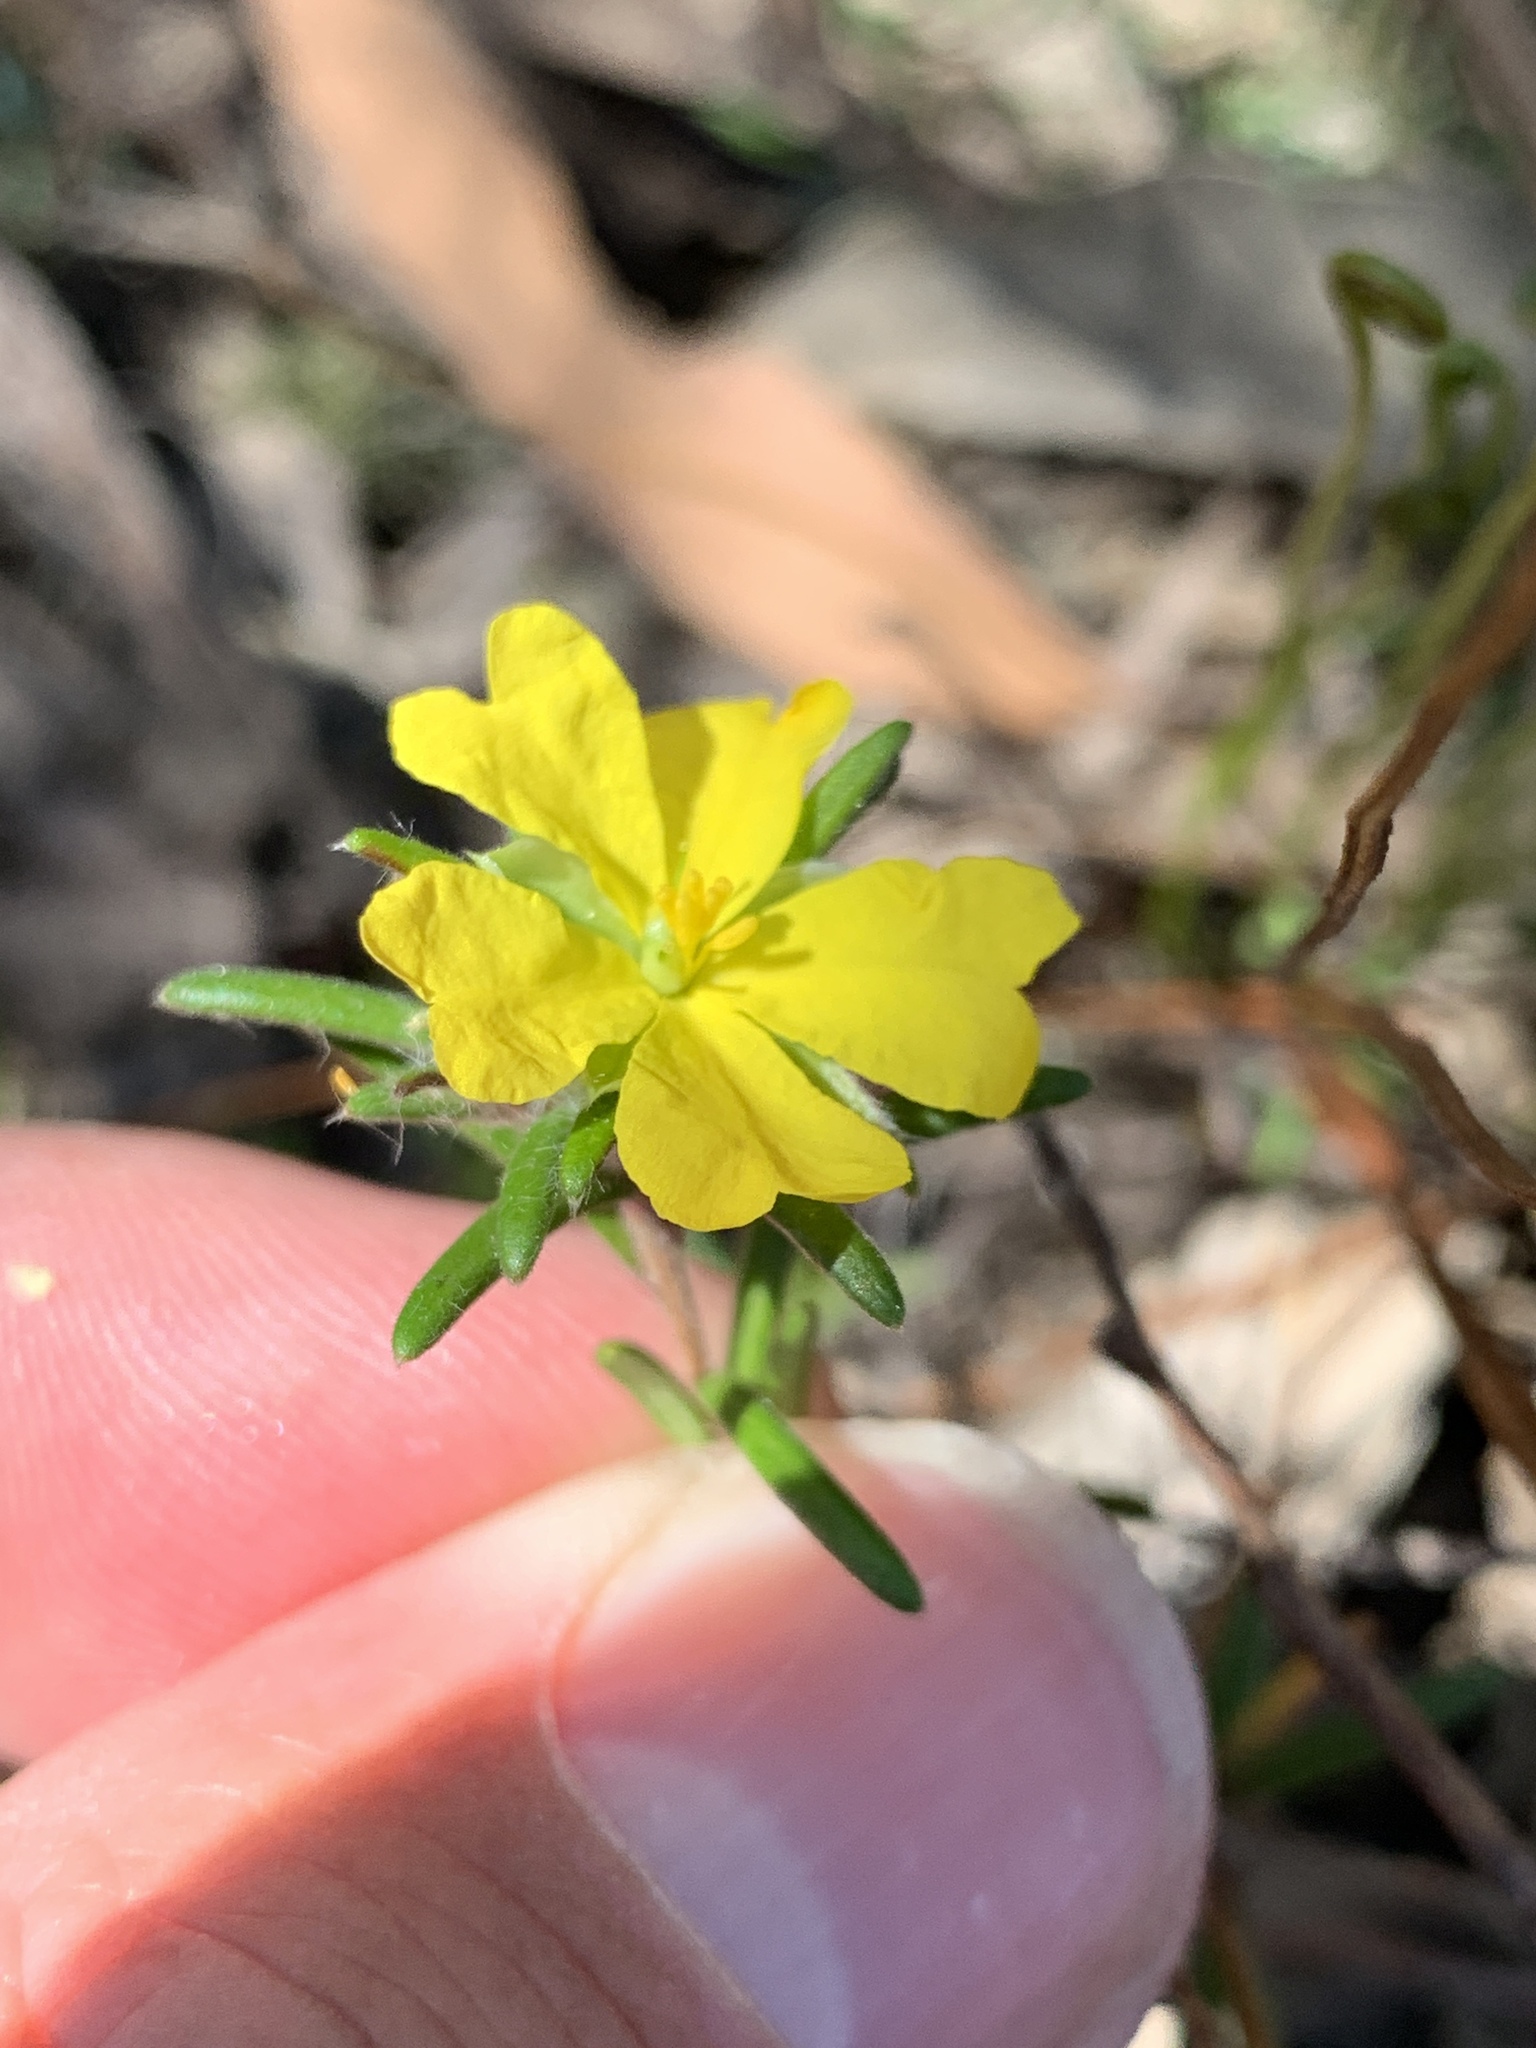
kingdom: Plantae
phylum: Tracheophyta
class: Magnoliopsida
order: Dilleniales
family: Dilleniaceae
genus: Hibbertia
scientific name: Hibbertia superans
